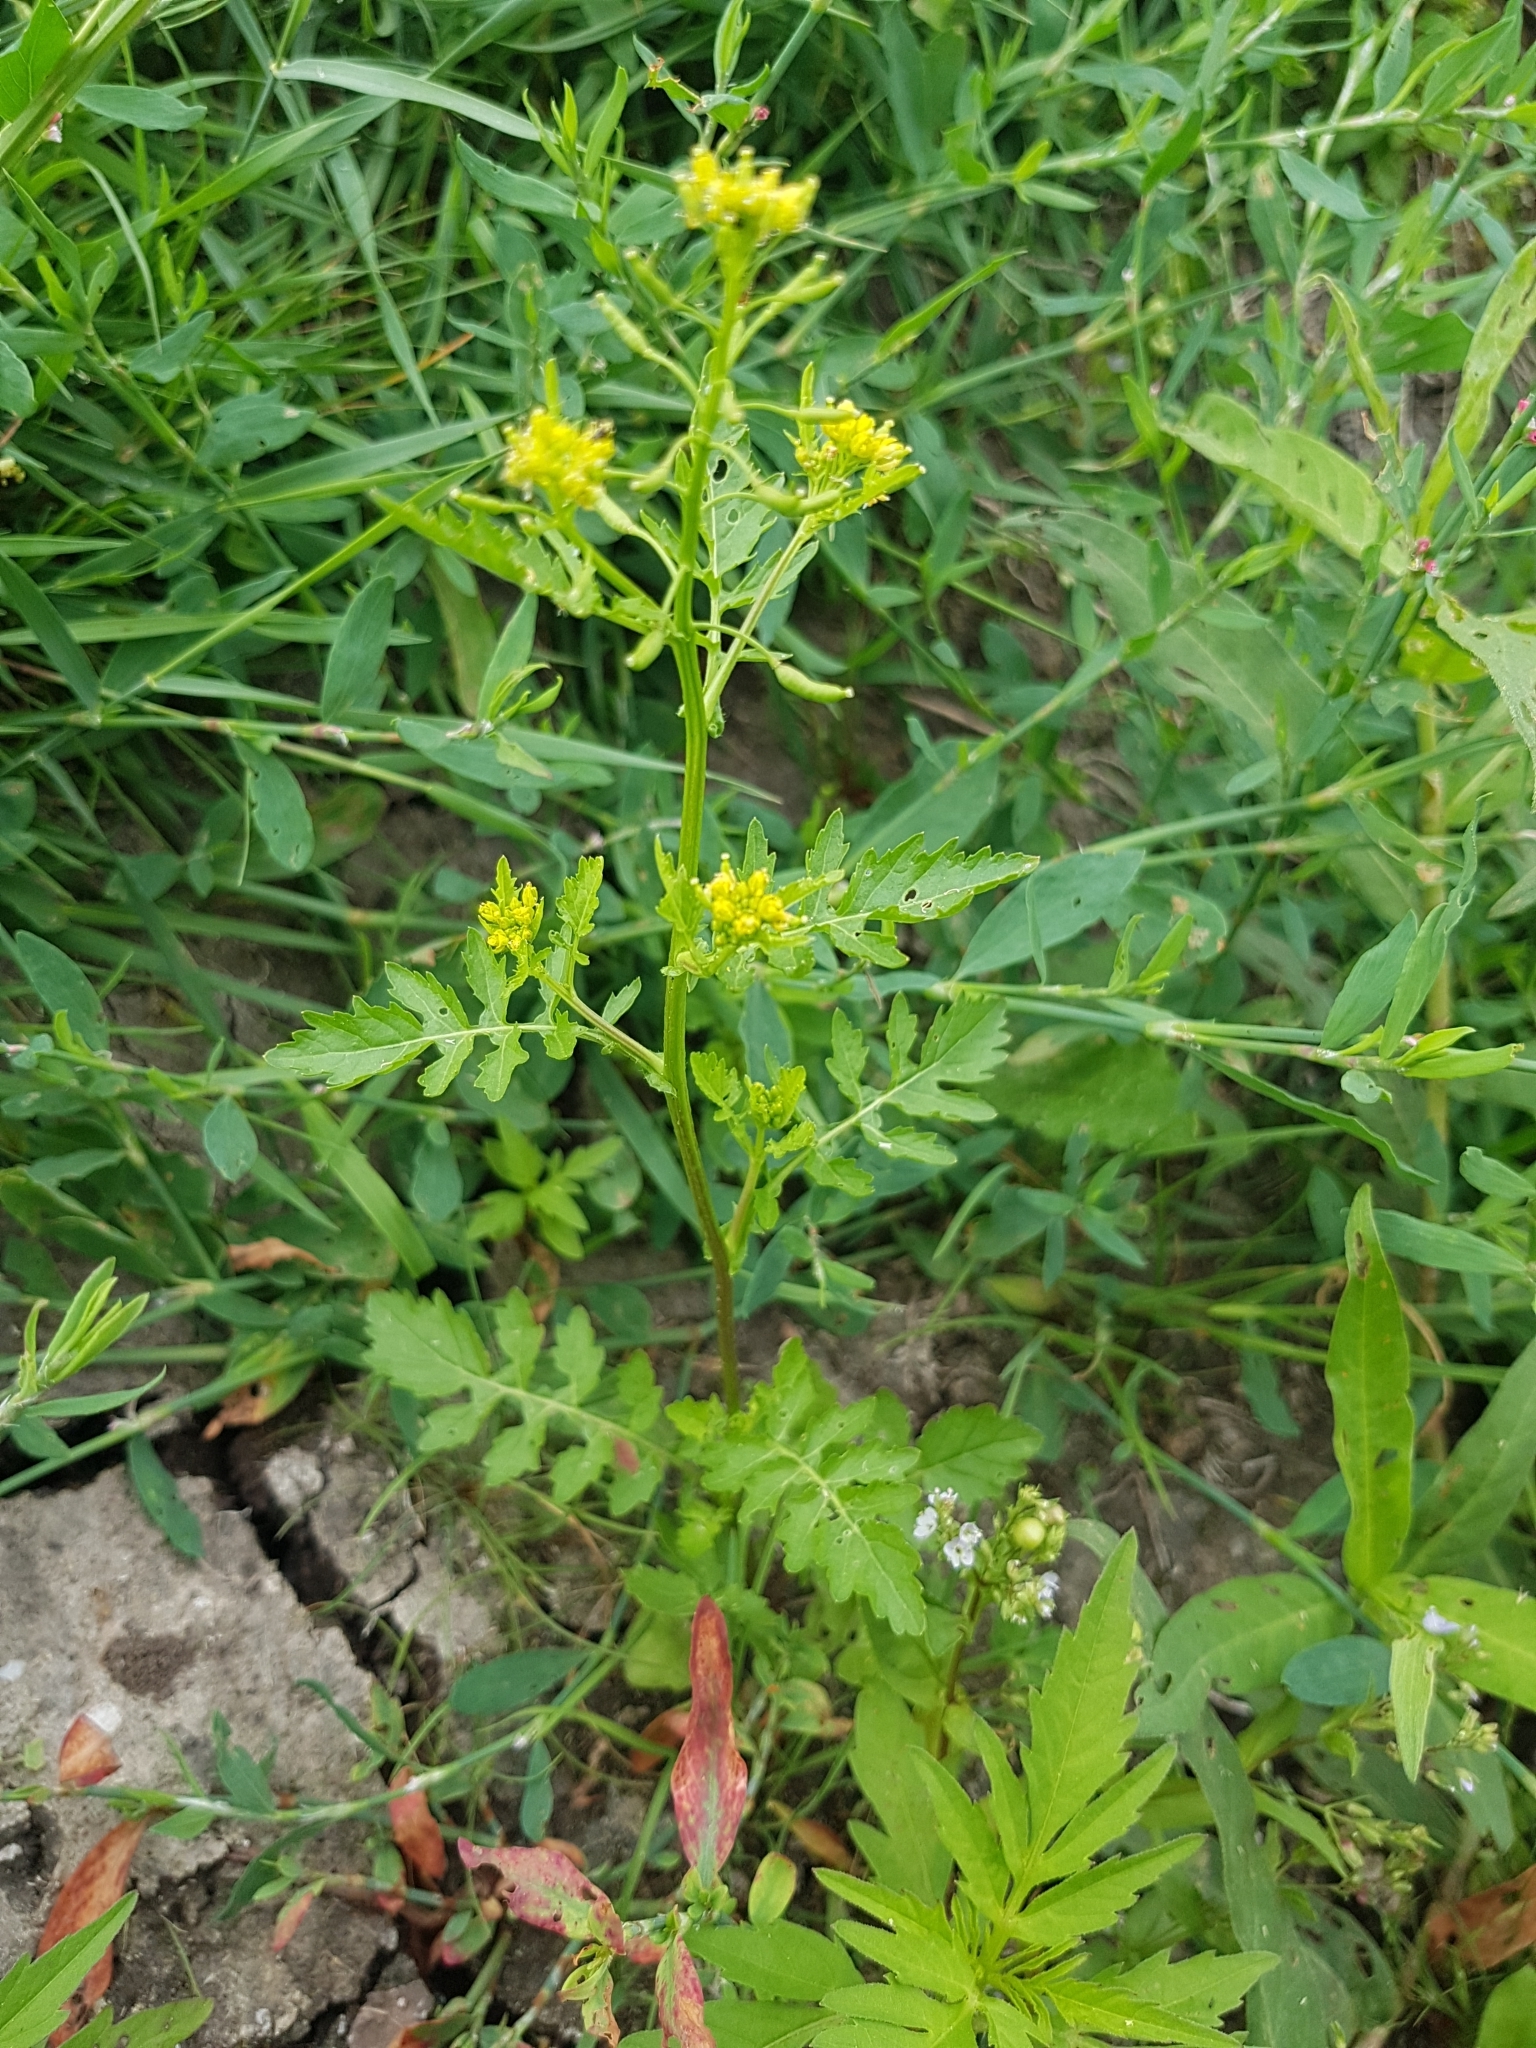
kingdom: Plantae
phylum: Tracheophyta
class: Magnoliopsida
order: Brassicales
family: Brassicaceae
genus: Rorippa
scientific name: Rorippa palustris
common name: Marsh yellow-cress
